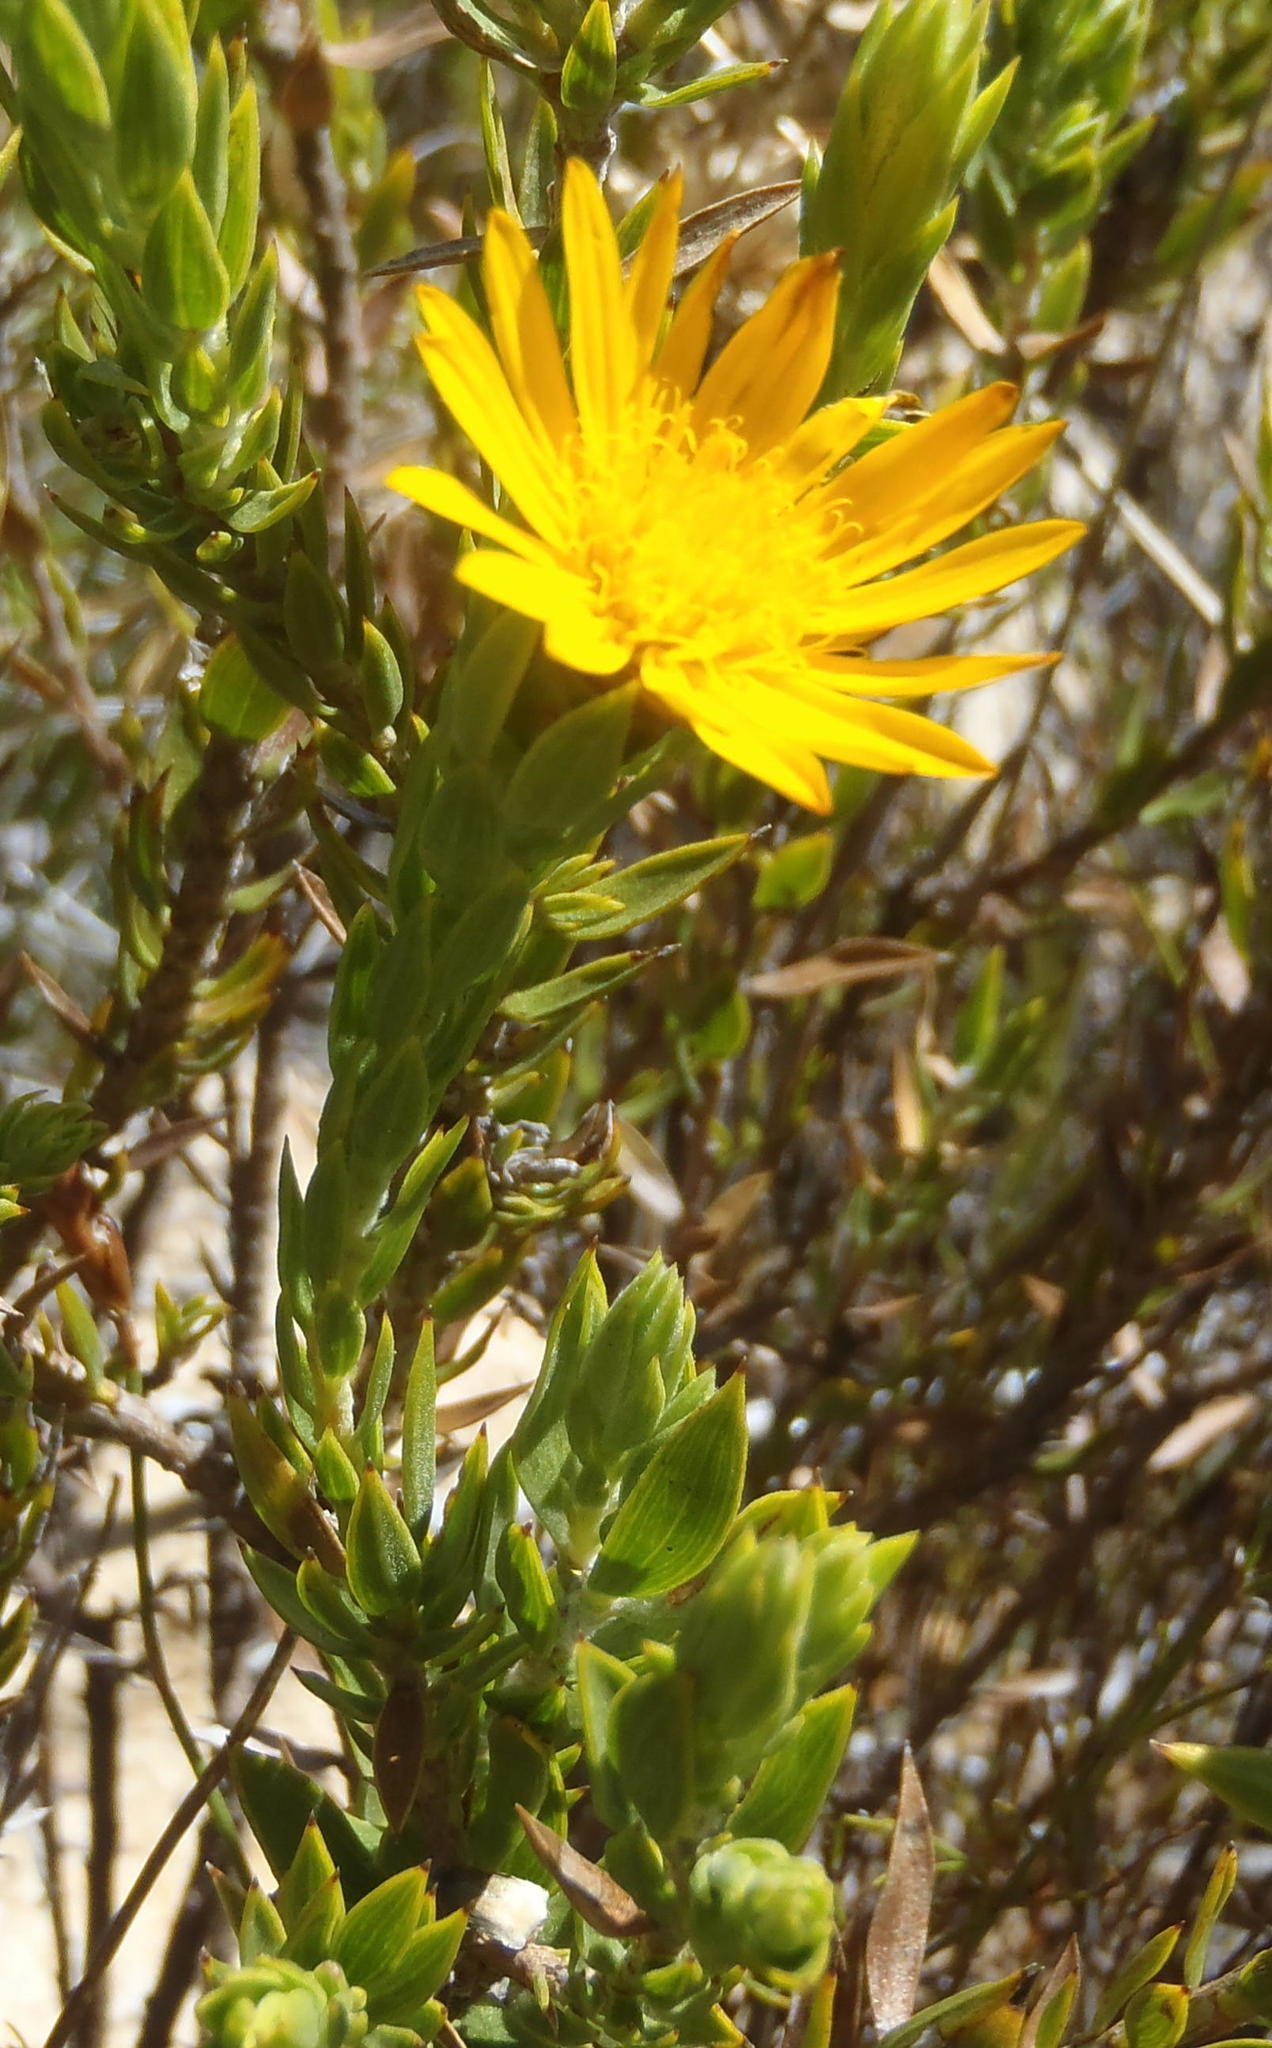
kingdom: Plantae
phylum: Tracheophyta
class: Magnoliopsida
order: Asterales
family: Asteraceae
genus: Oedera
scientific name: Oedera calycina
